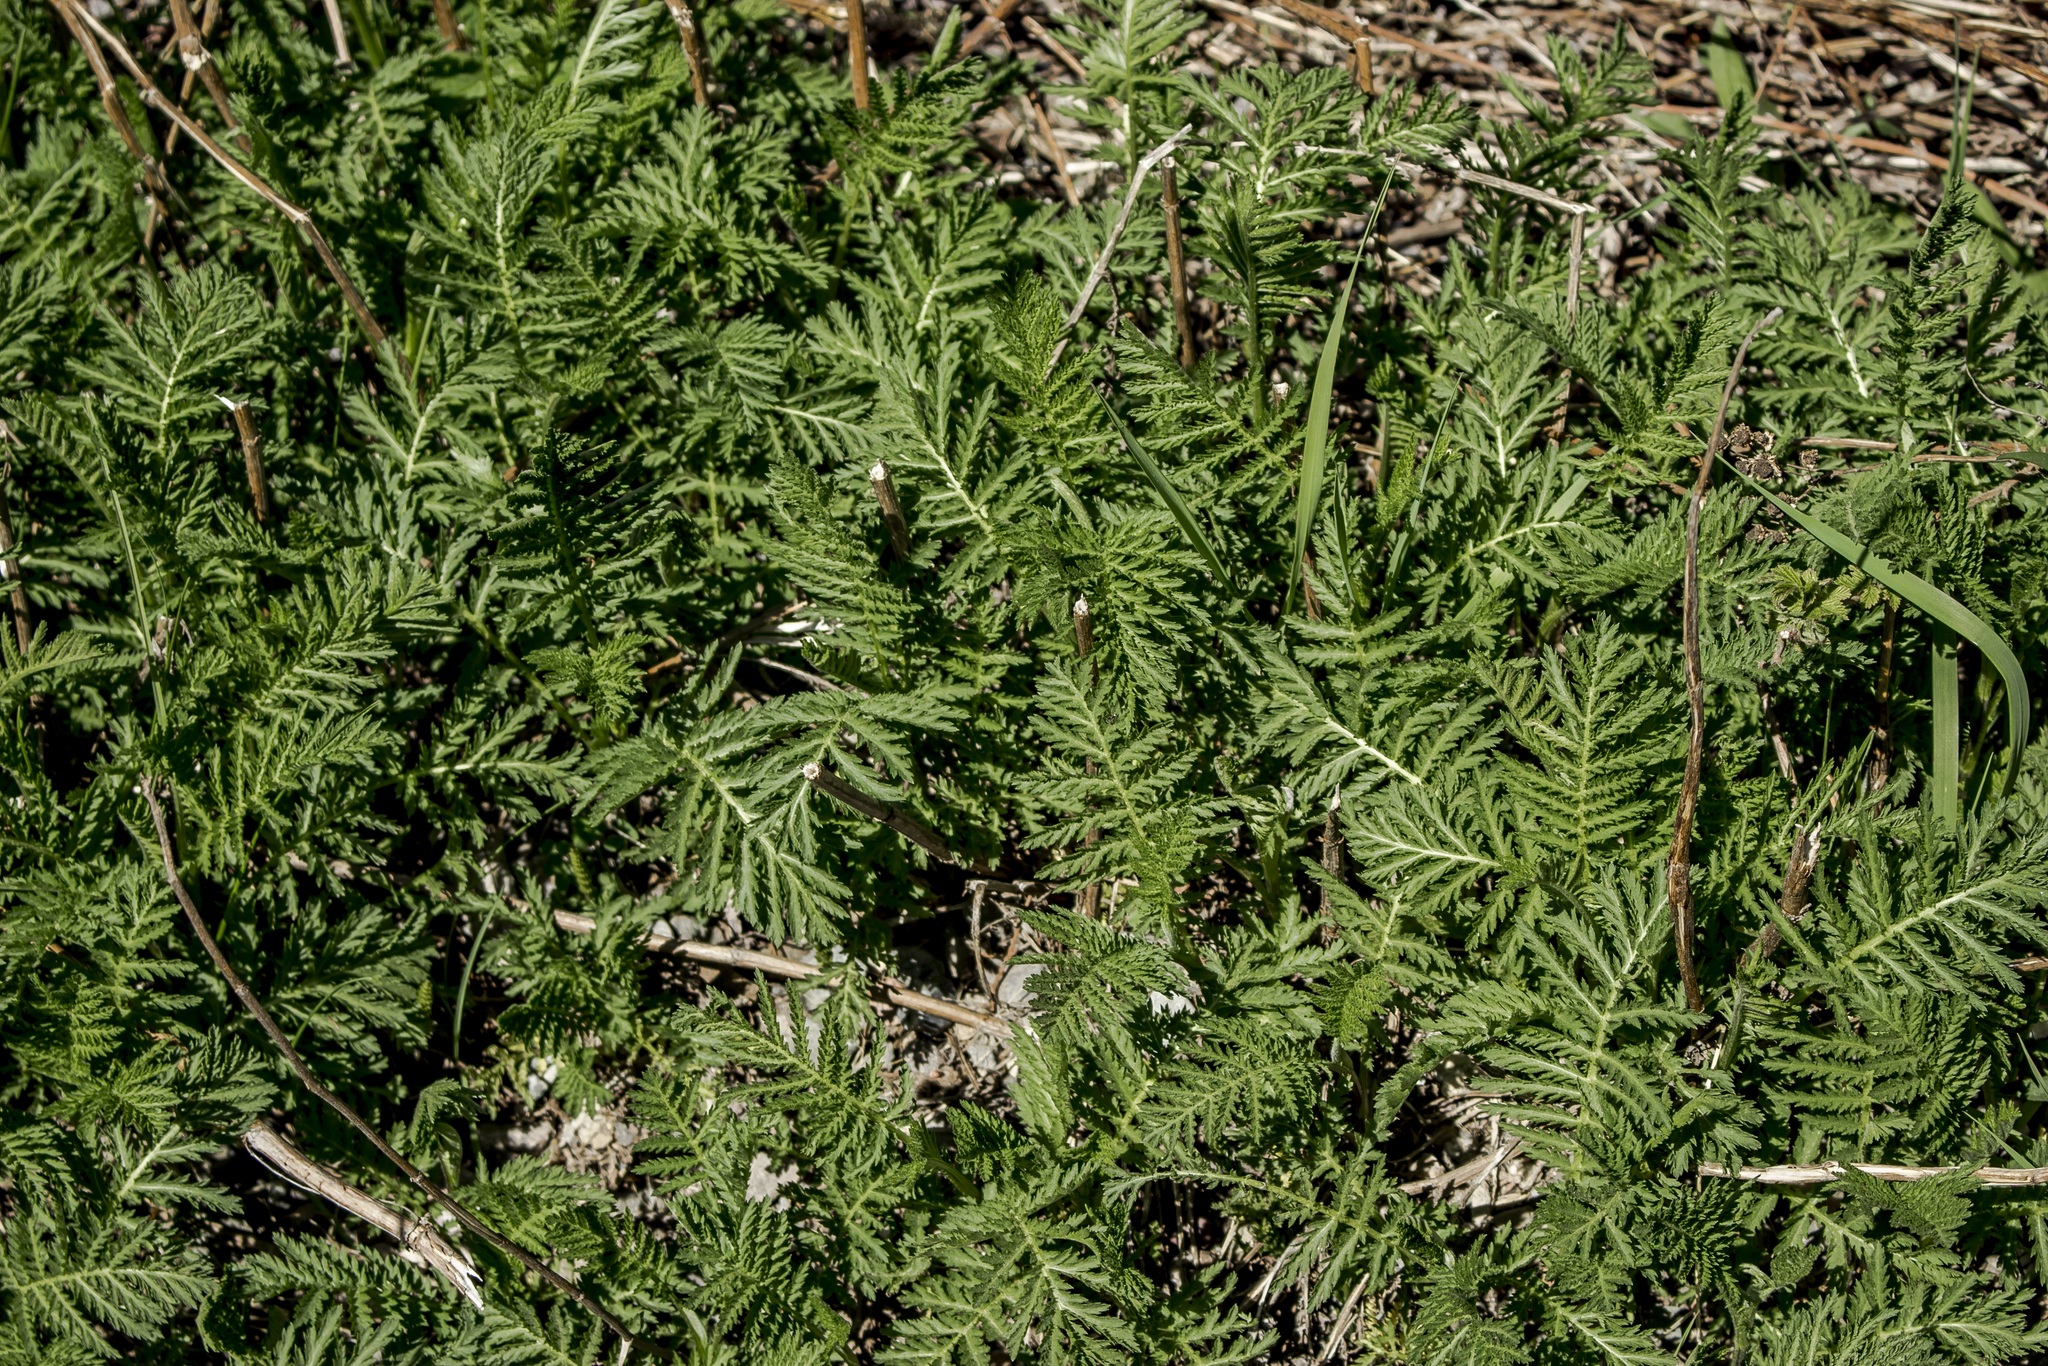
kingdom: Plantae
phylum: Tracheophyta
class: Magnoliopsida
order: Asterales
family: Asteraceae
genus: Tanacetum
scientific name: Tanacetum vulgare
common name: Common tansy
